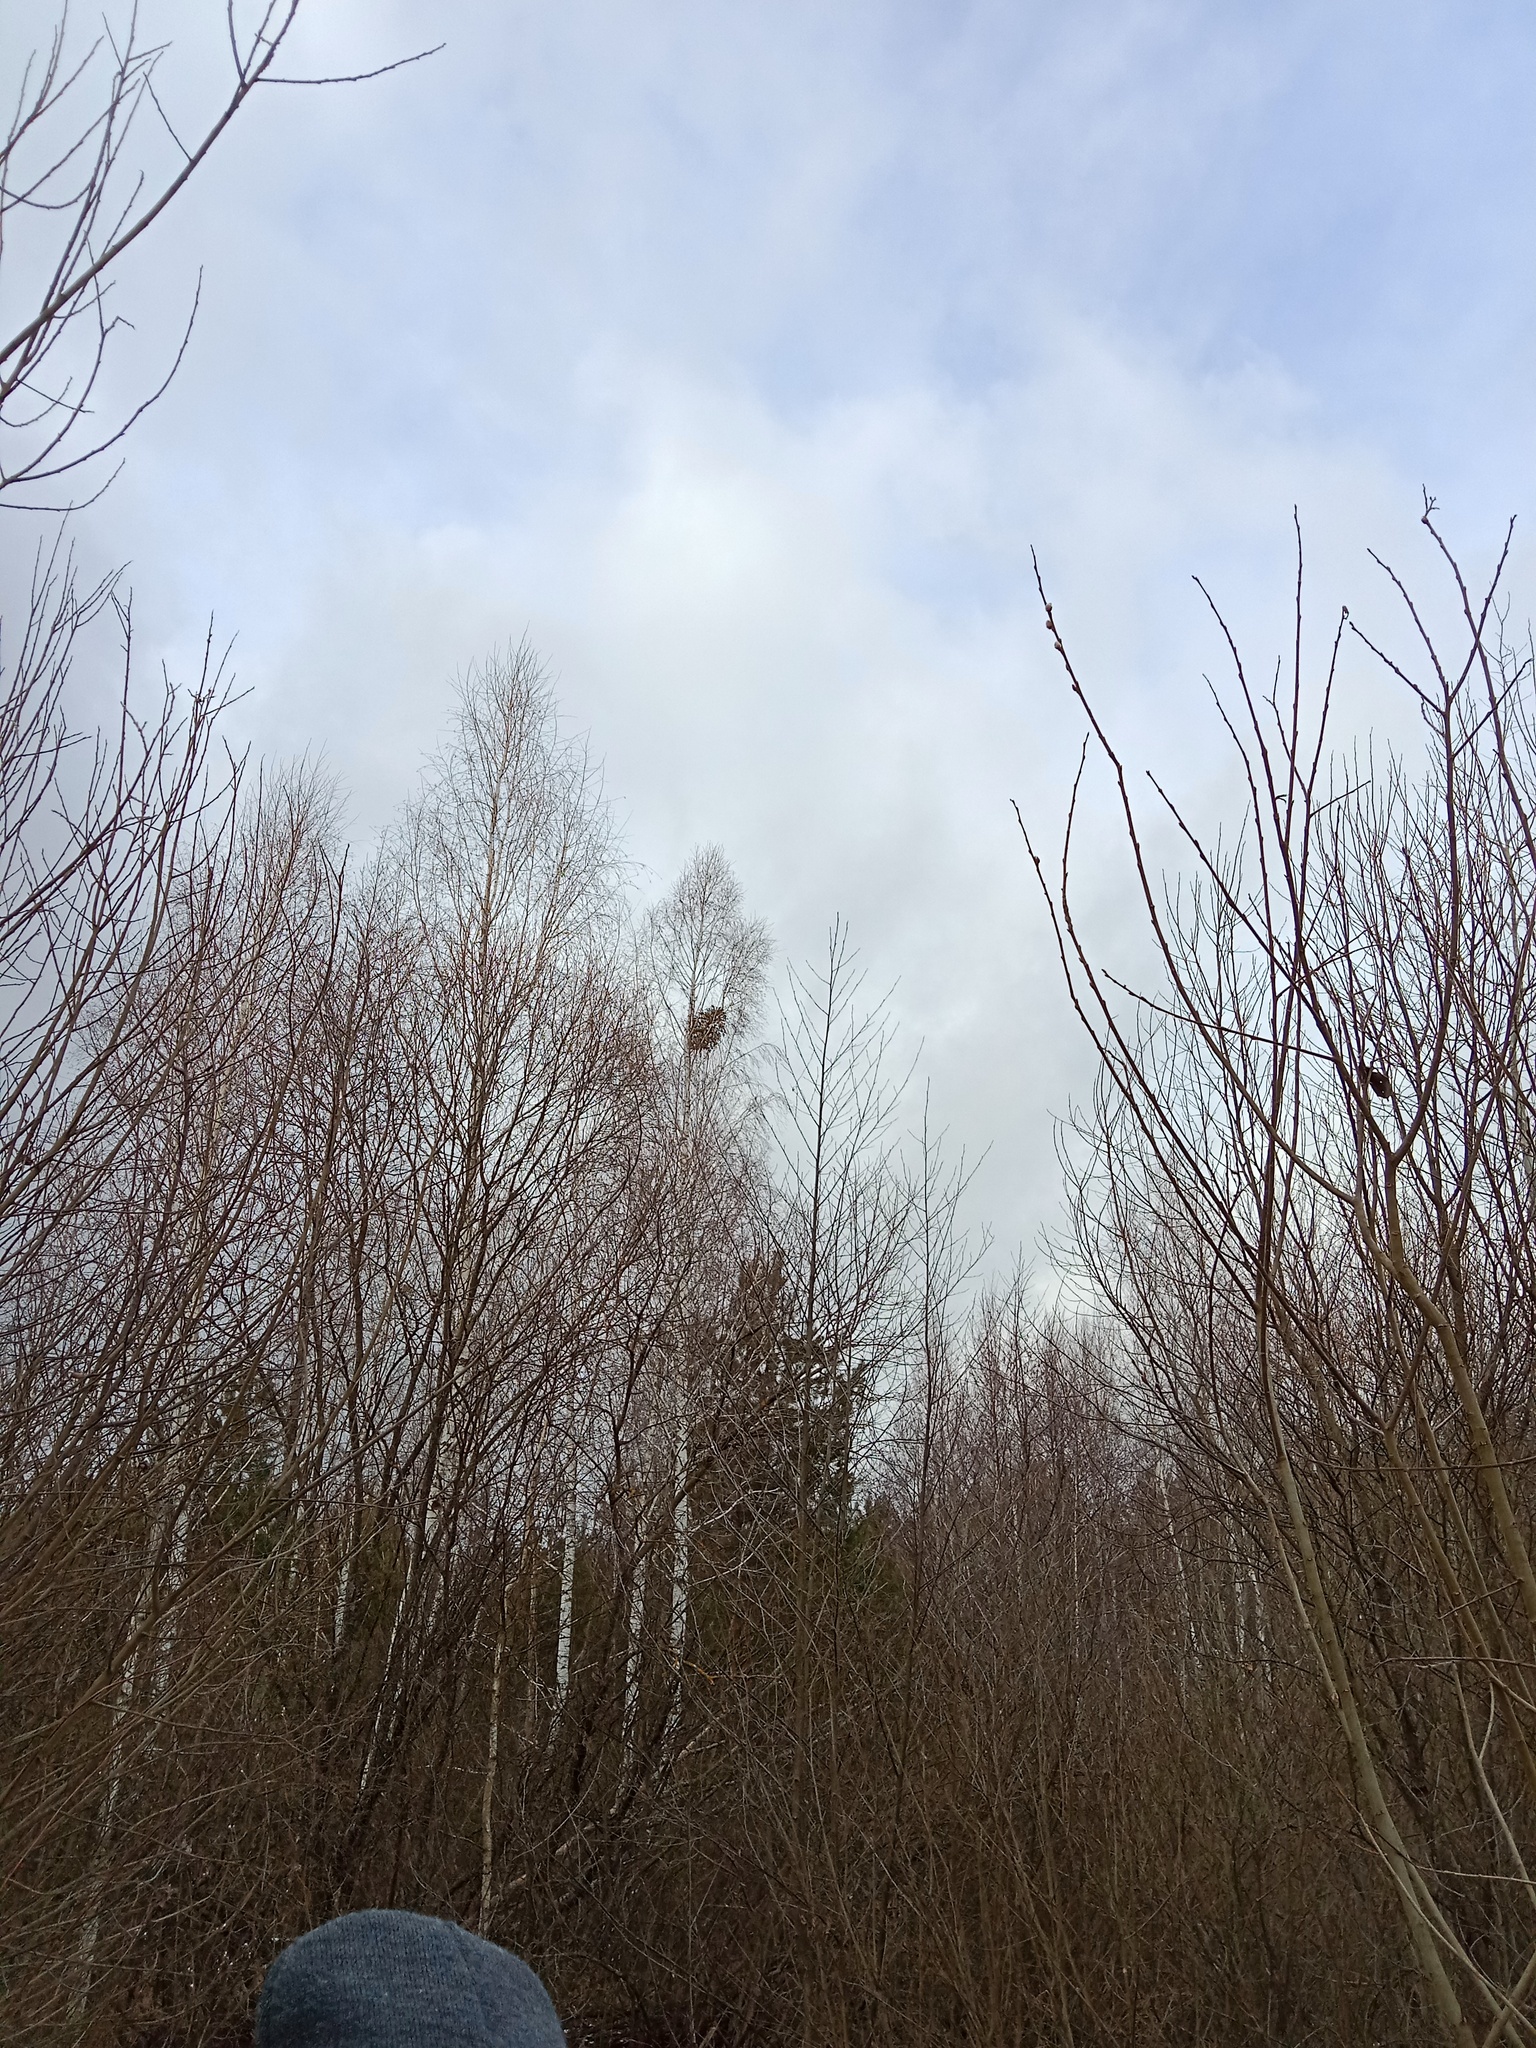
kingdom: Plantae
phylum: Tracheophyta
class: Magnoliopsida
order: Santalales
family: Viscaceae
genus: Viscum
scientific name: Viscum album
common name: Mistletoe
